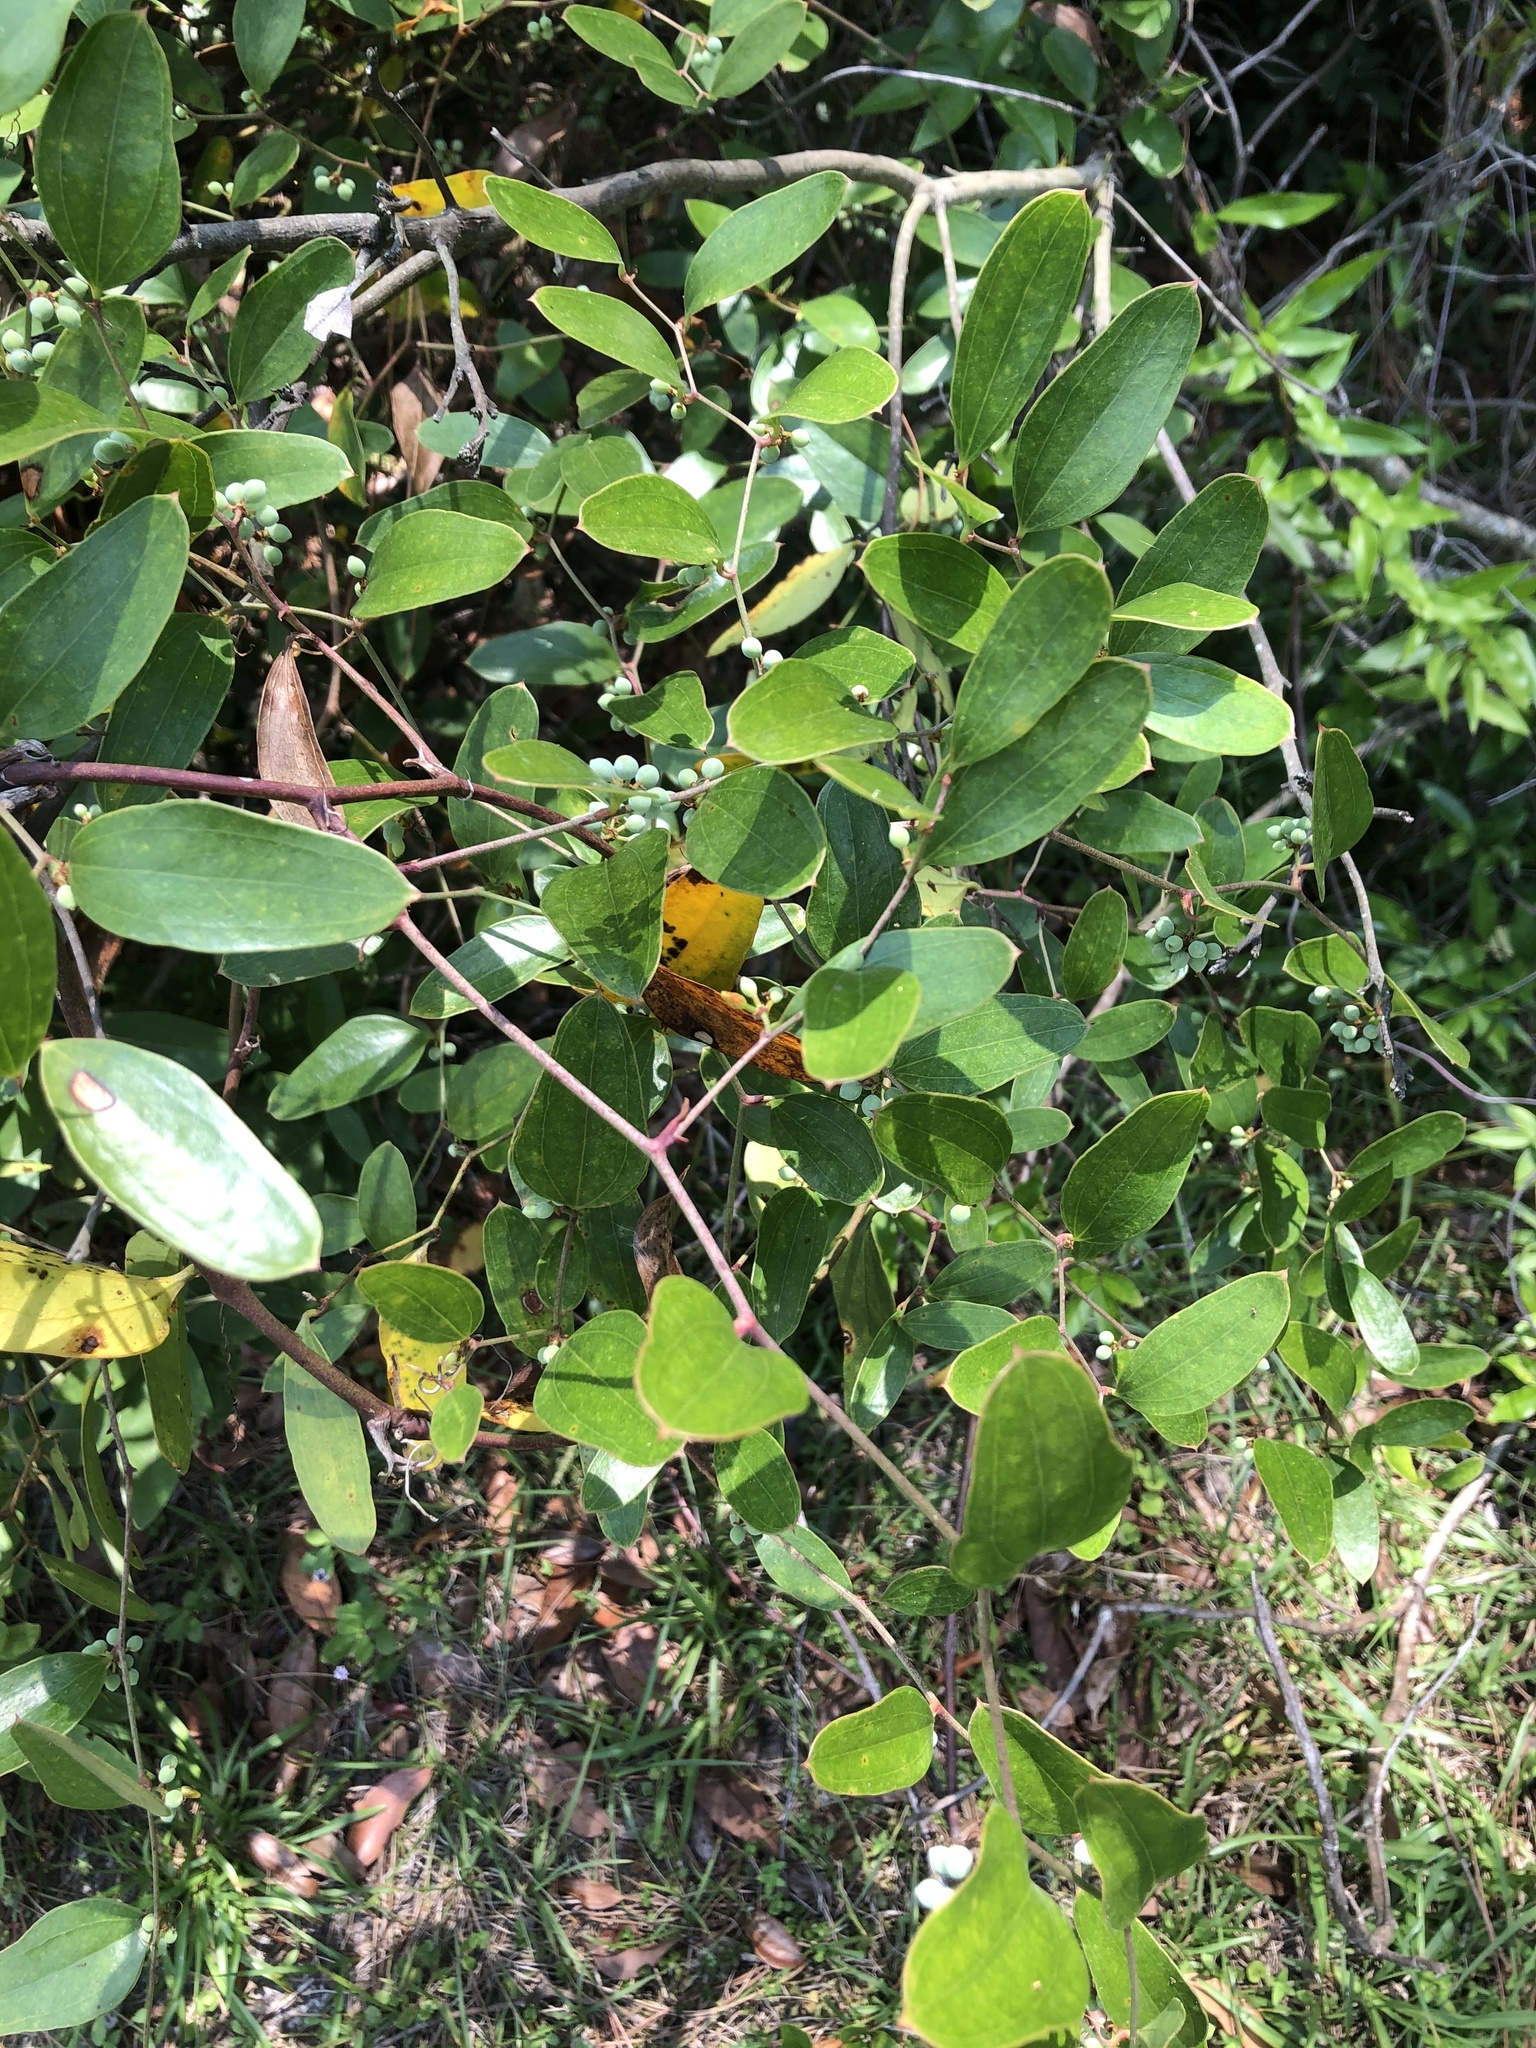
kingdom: Plantae
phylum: Tracheophyta
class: Liliopsida
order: Liliales
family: Smilacaceae
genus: Smilax
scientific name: Smilax auriculata
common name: Wild bamboo
